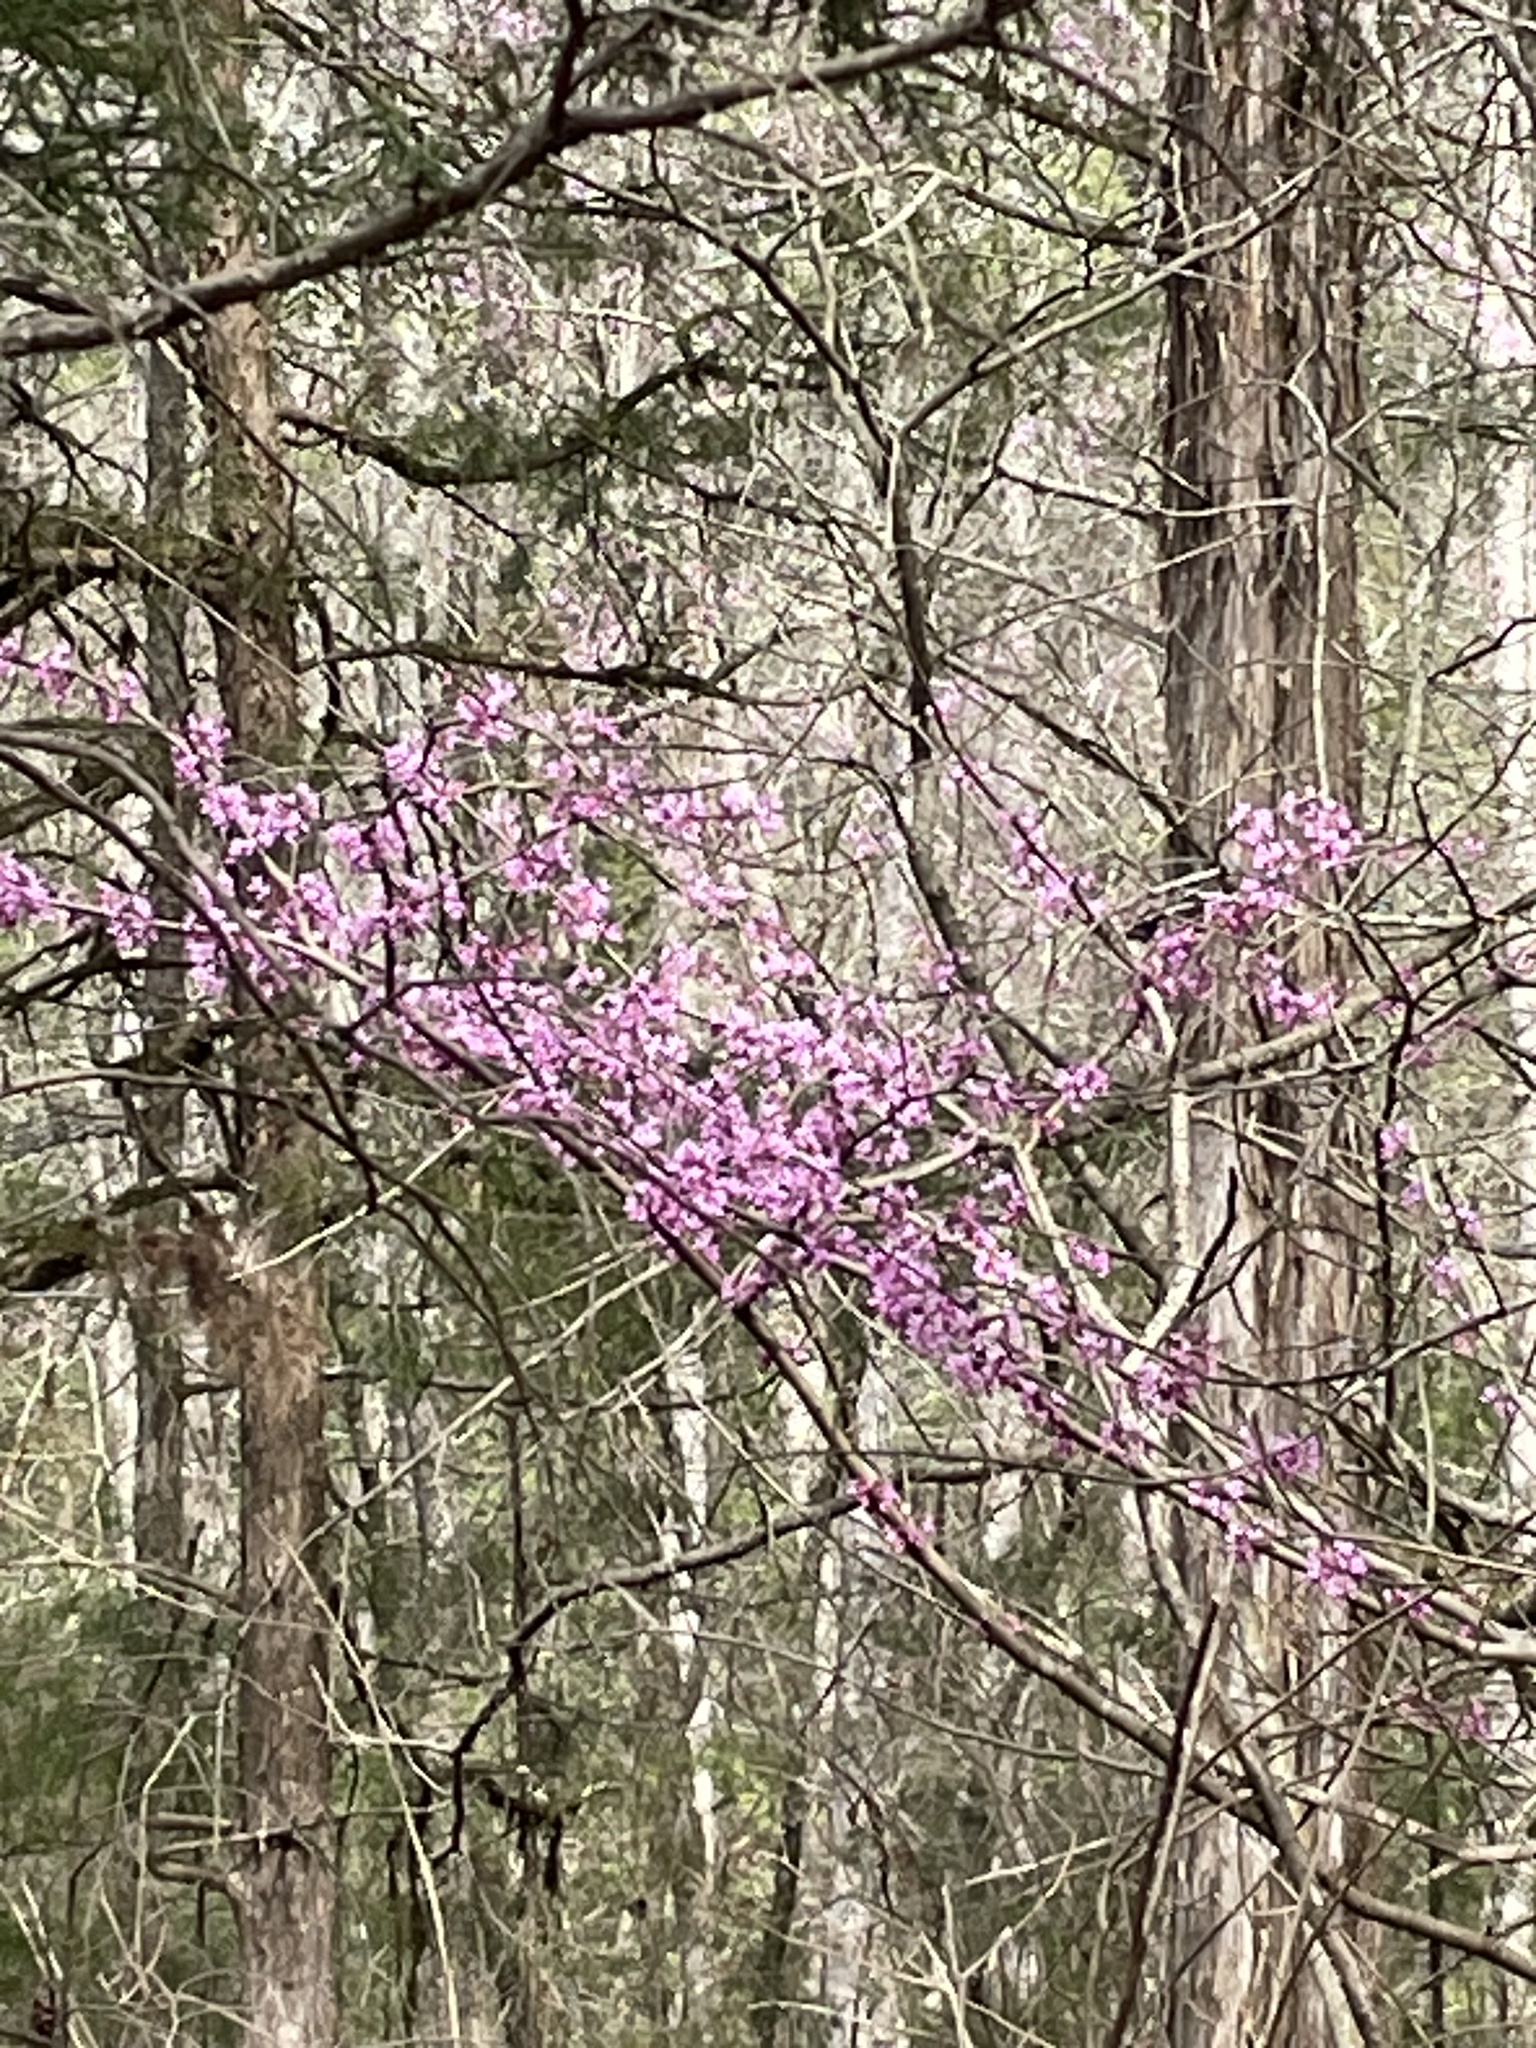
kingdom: Plantae
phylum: Tracheophyta
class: Magnoliopsida
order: Fabales
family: Fabaceae
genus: Cercis
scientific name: Cercis canadensis
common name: Eastern redbud
